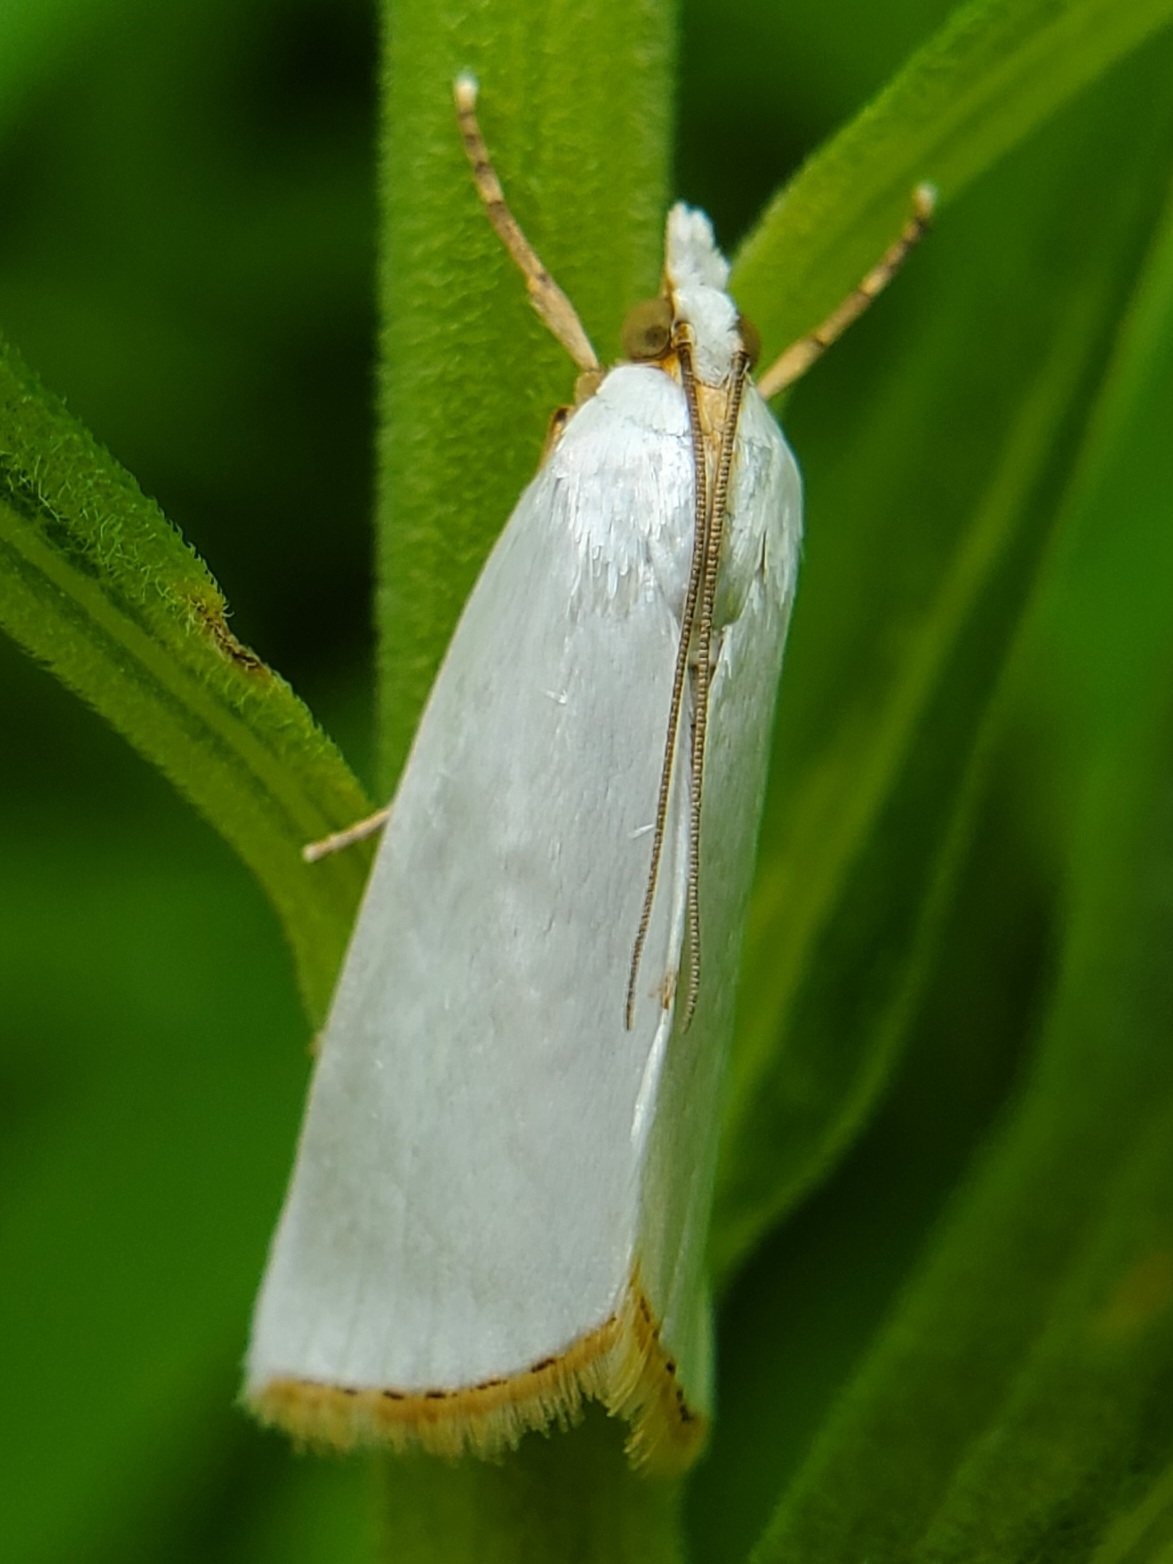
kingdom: Animalia
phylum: Arthropoda
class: Insecta
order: Lepidoptera
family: Crambidae
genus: Argyria
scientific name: Argyria nivalis
